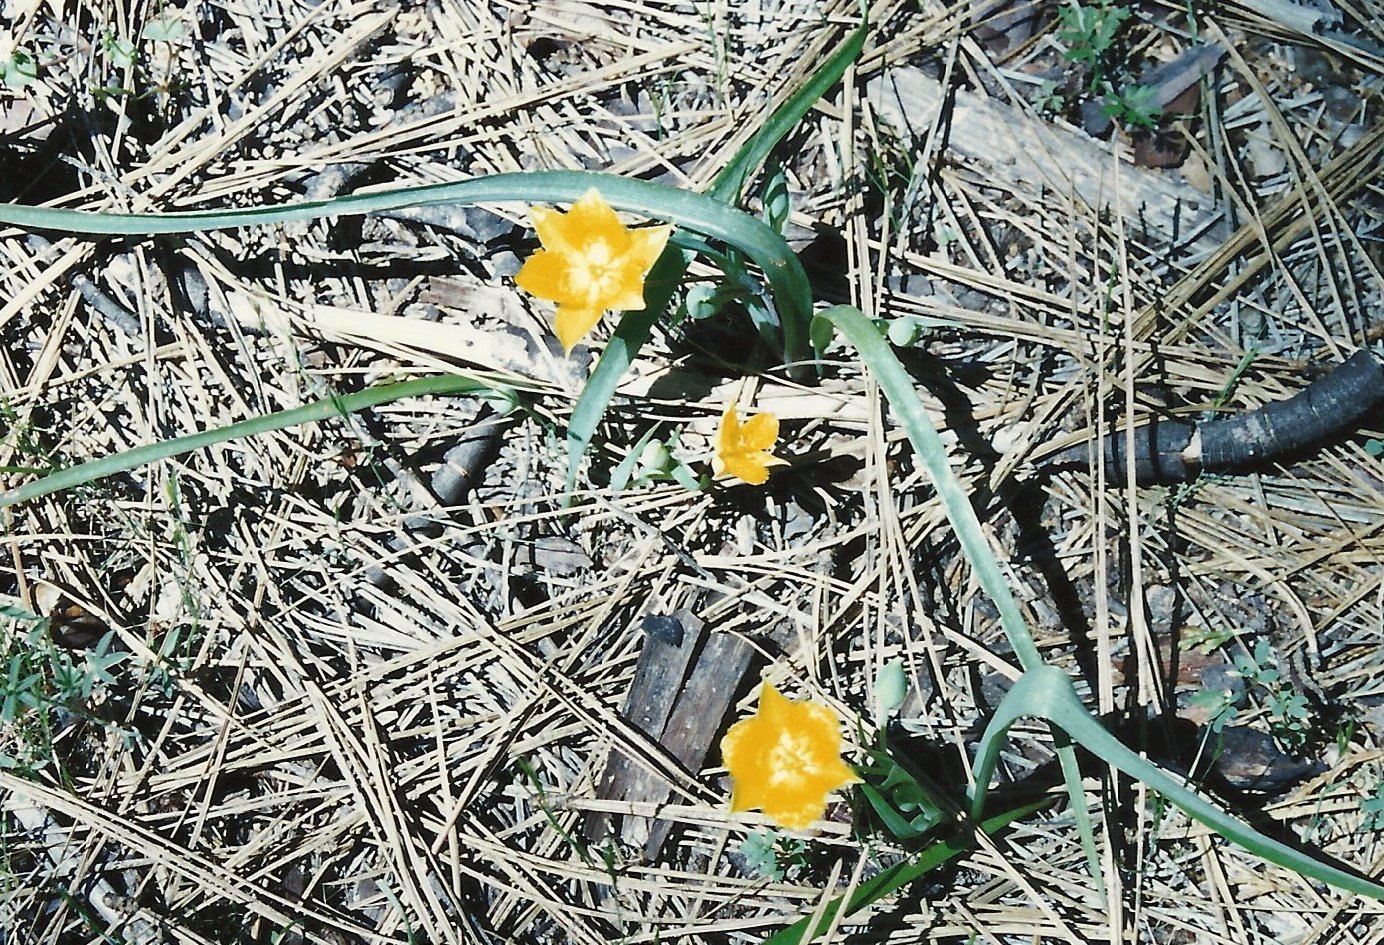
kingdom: Plantae
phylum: Tracheophyta
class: Liliopsida
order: Liliales
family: Liliaceae
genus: Calochortus
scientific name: Calochortus monophyllus
